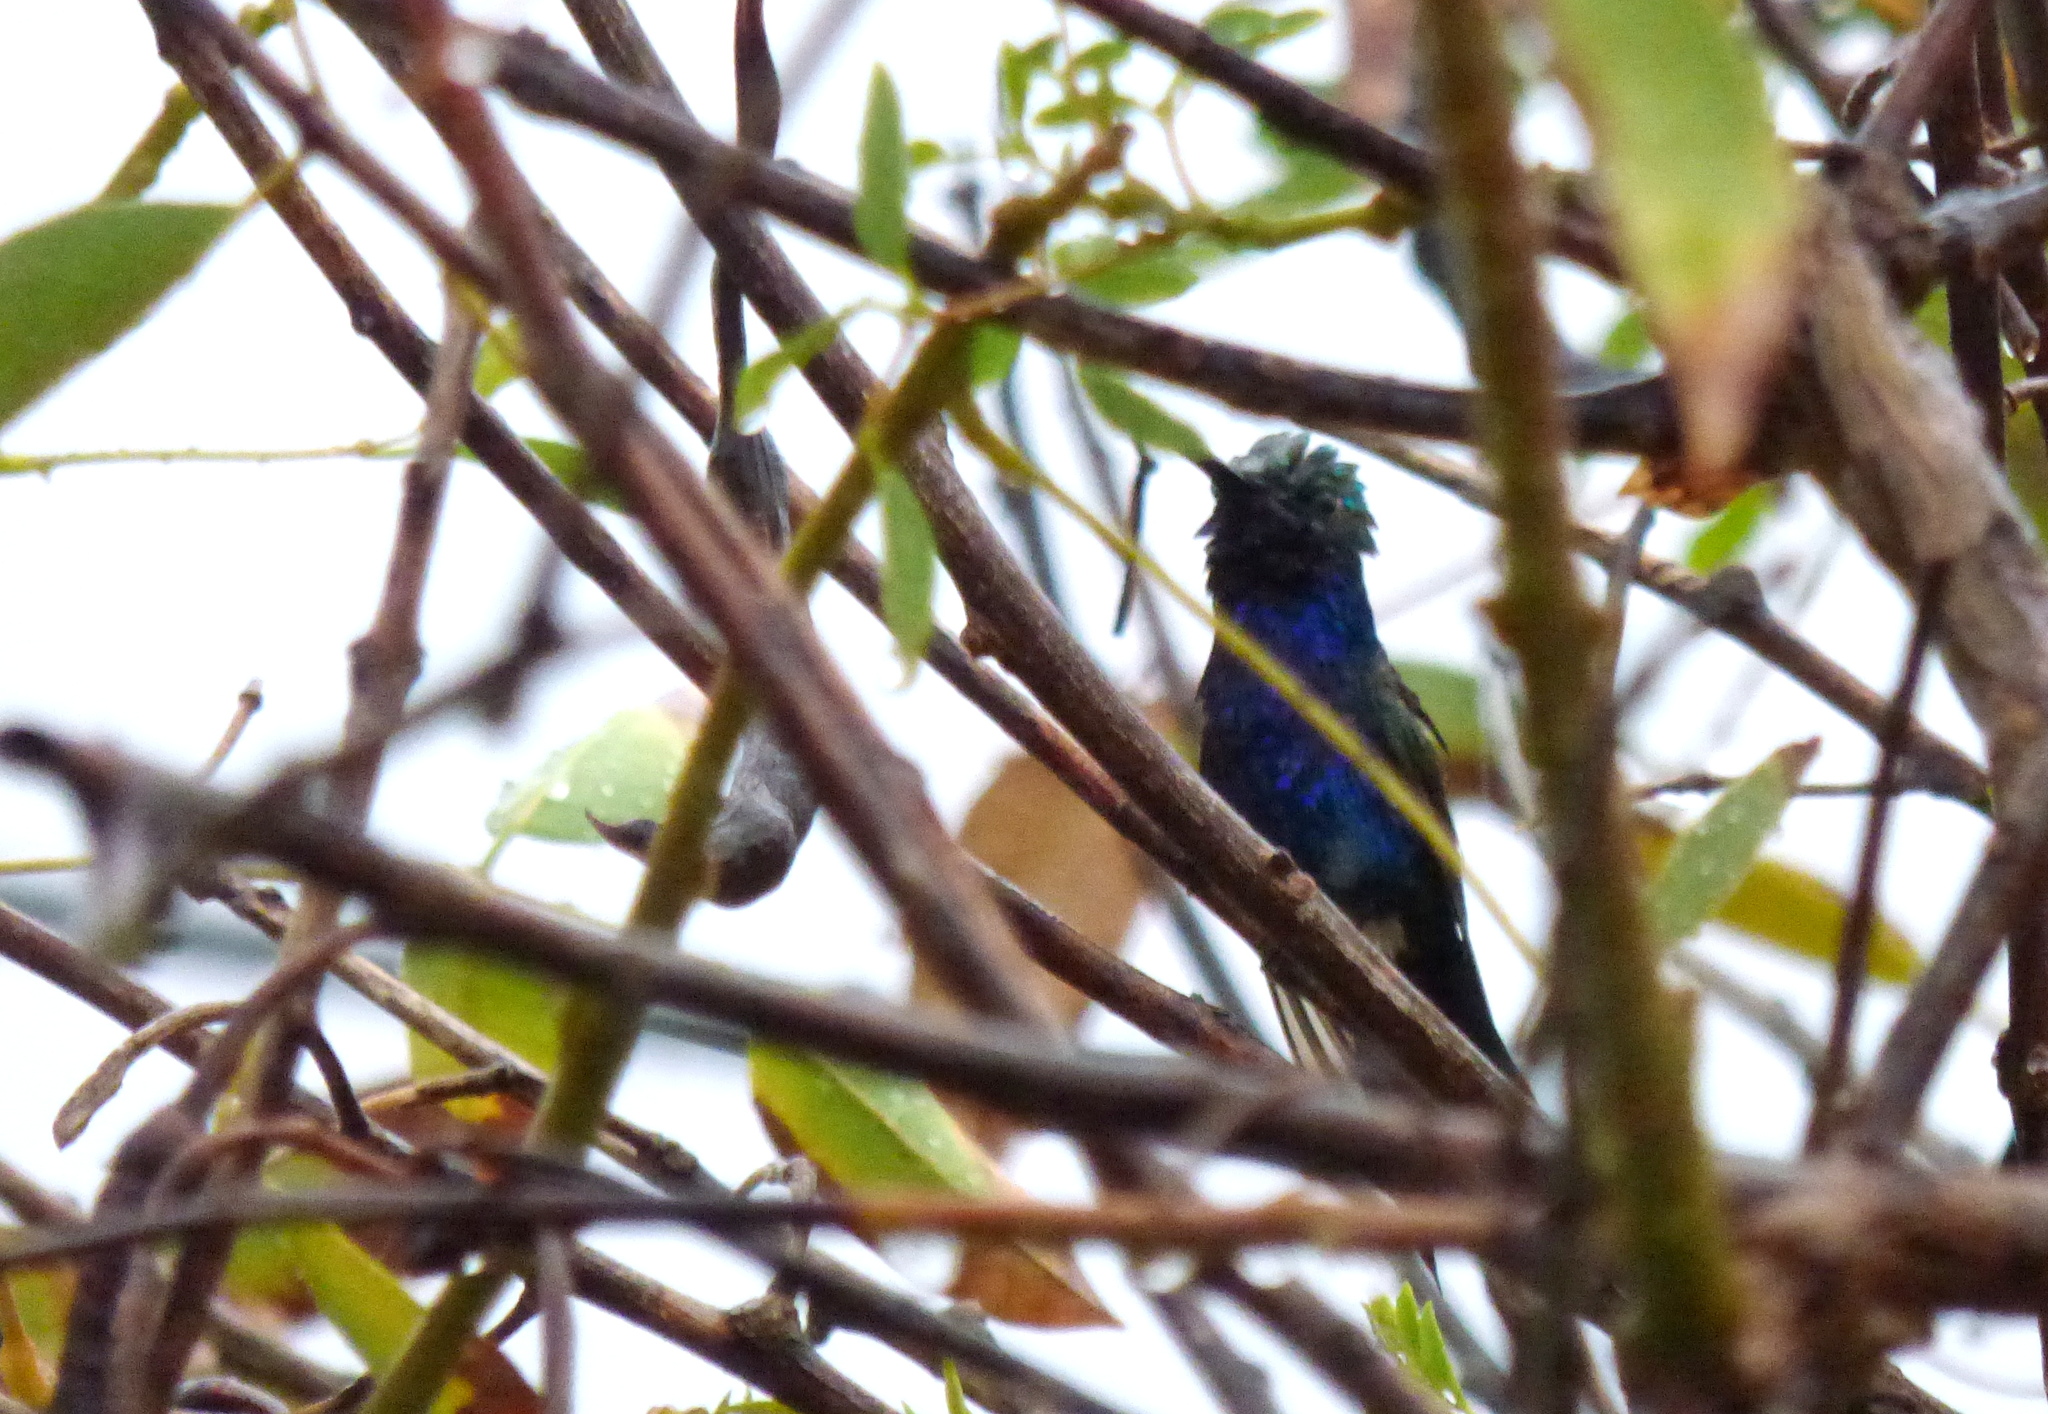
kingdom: Animalia
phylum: Chordata
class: Aves
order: Apodiformes
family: Trochilidae
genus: Heliomaster
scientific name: Heliomaster furcifer
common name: Blue-tufted starthroat
